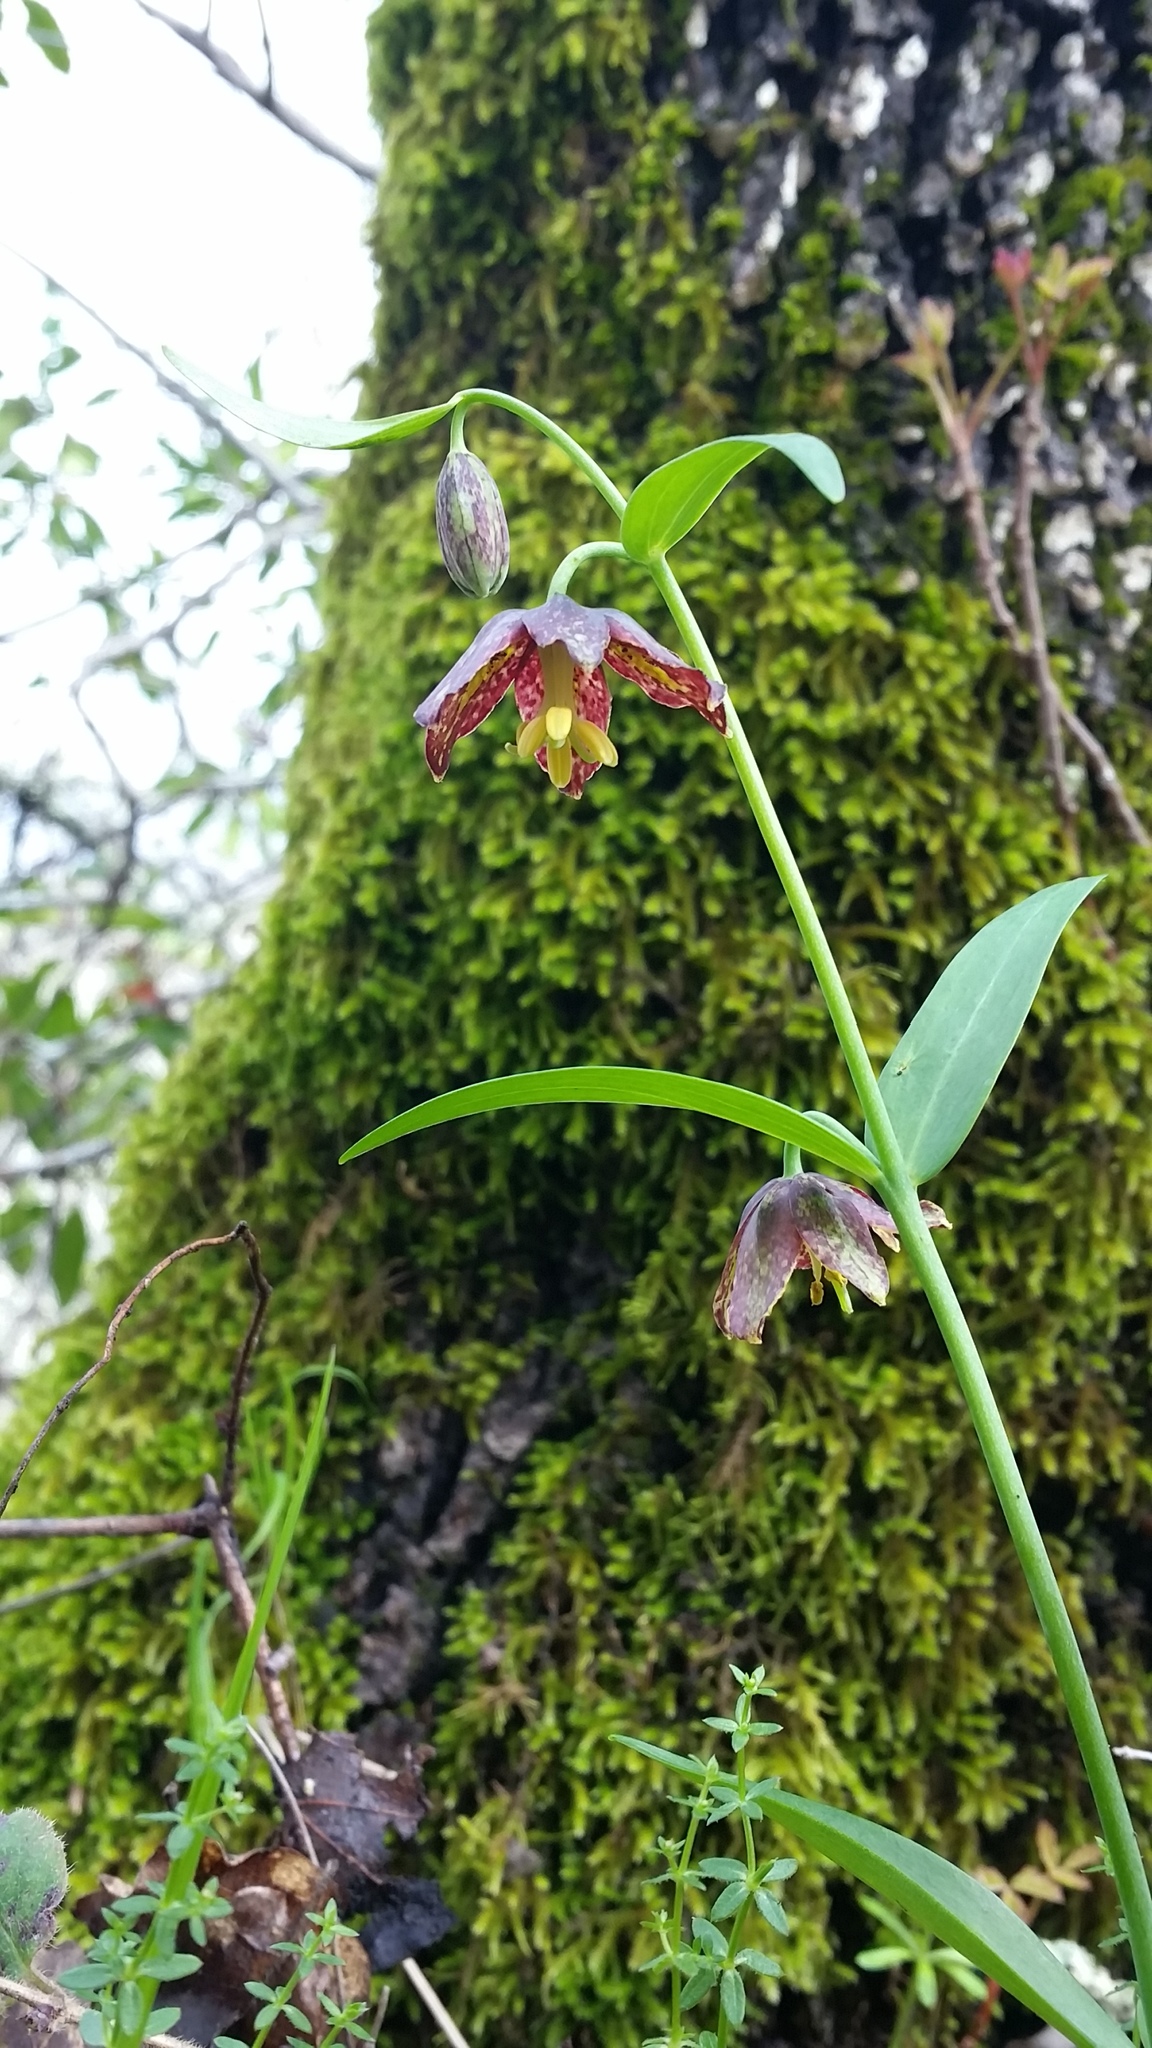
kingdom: Plantae
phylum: Tracheophyta
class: Liliopsida
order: Liliales
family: Liliaceae
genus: Fritillaria
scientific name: Fritillaria affinis
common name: Ojai fritillary
